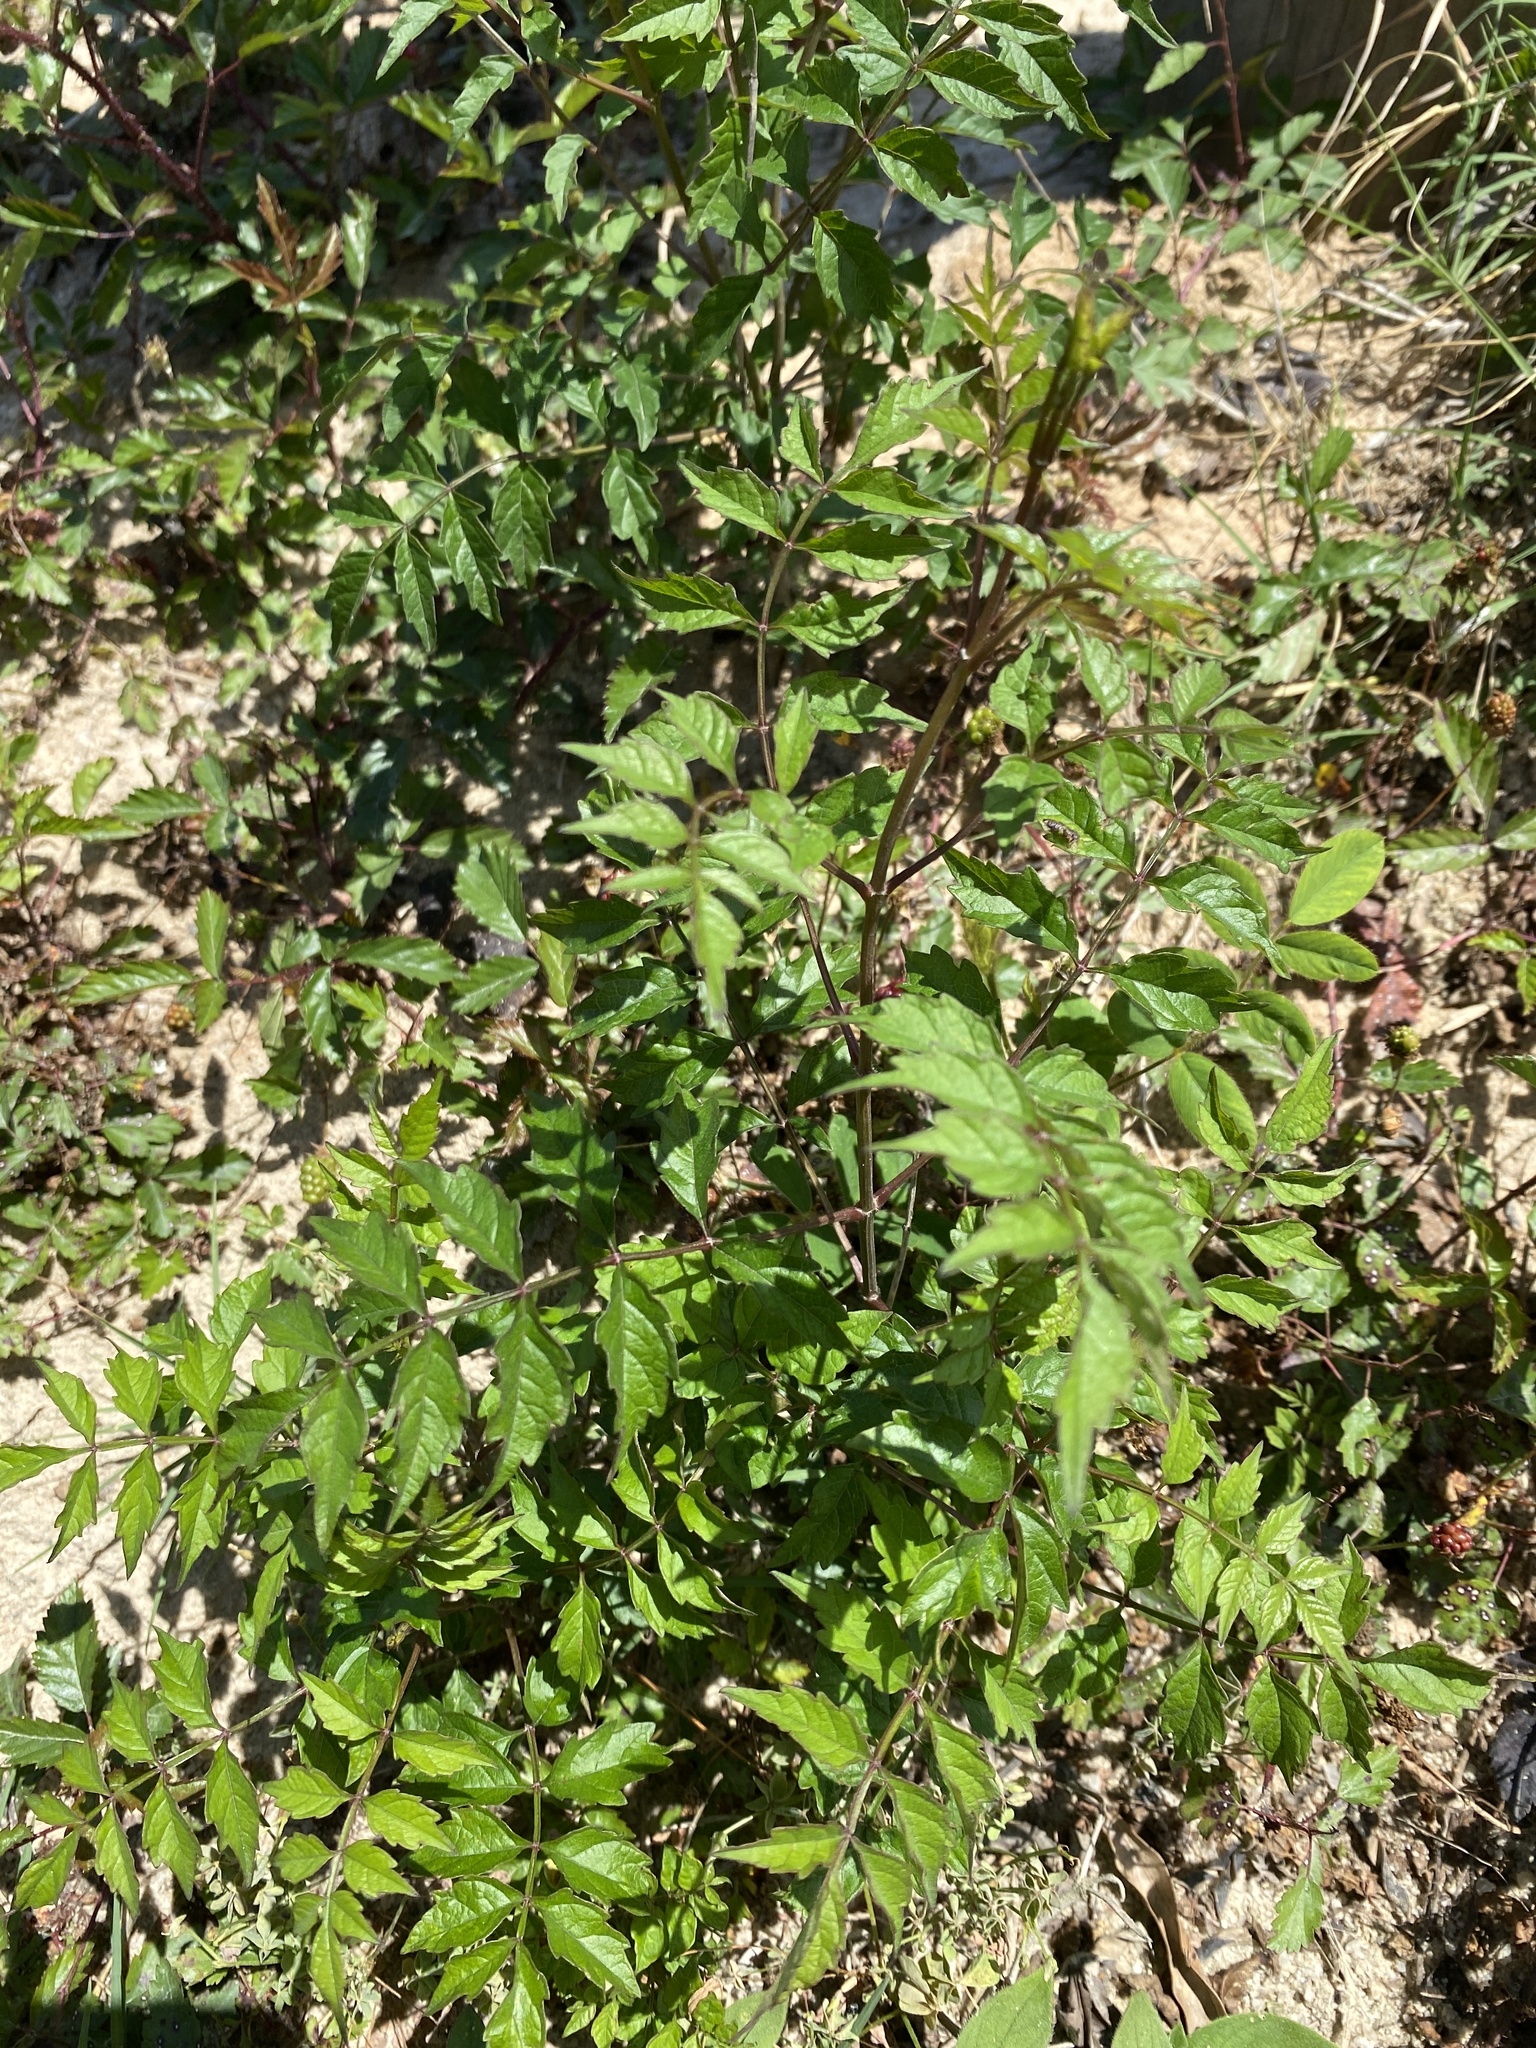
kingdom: Plantae
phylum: Tracheophyta
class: Magnoliopsida
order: Lamiales
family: Bignoniaceae
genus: Campsis
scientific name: Campsis radicans
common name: Trumpet-creeper
